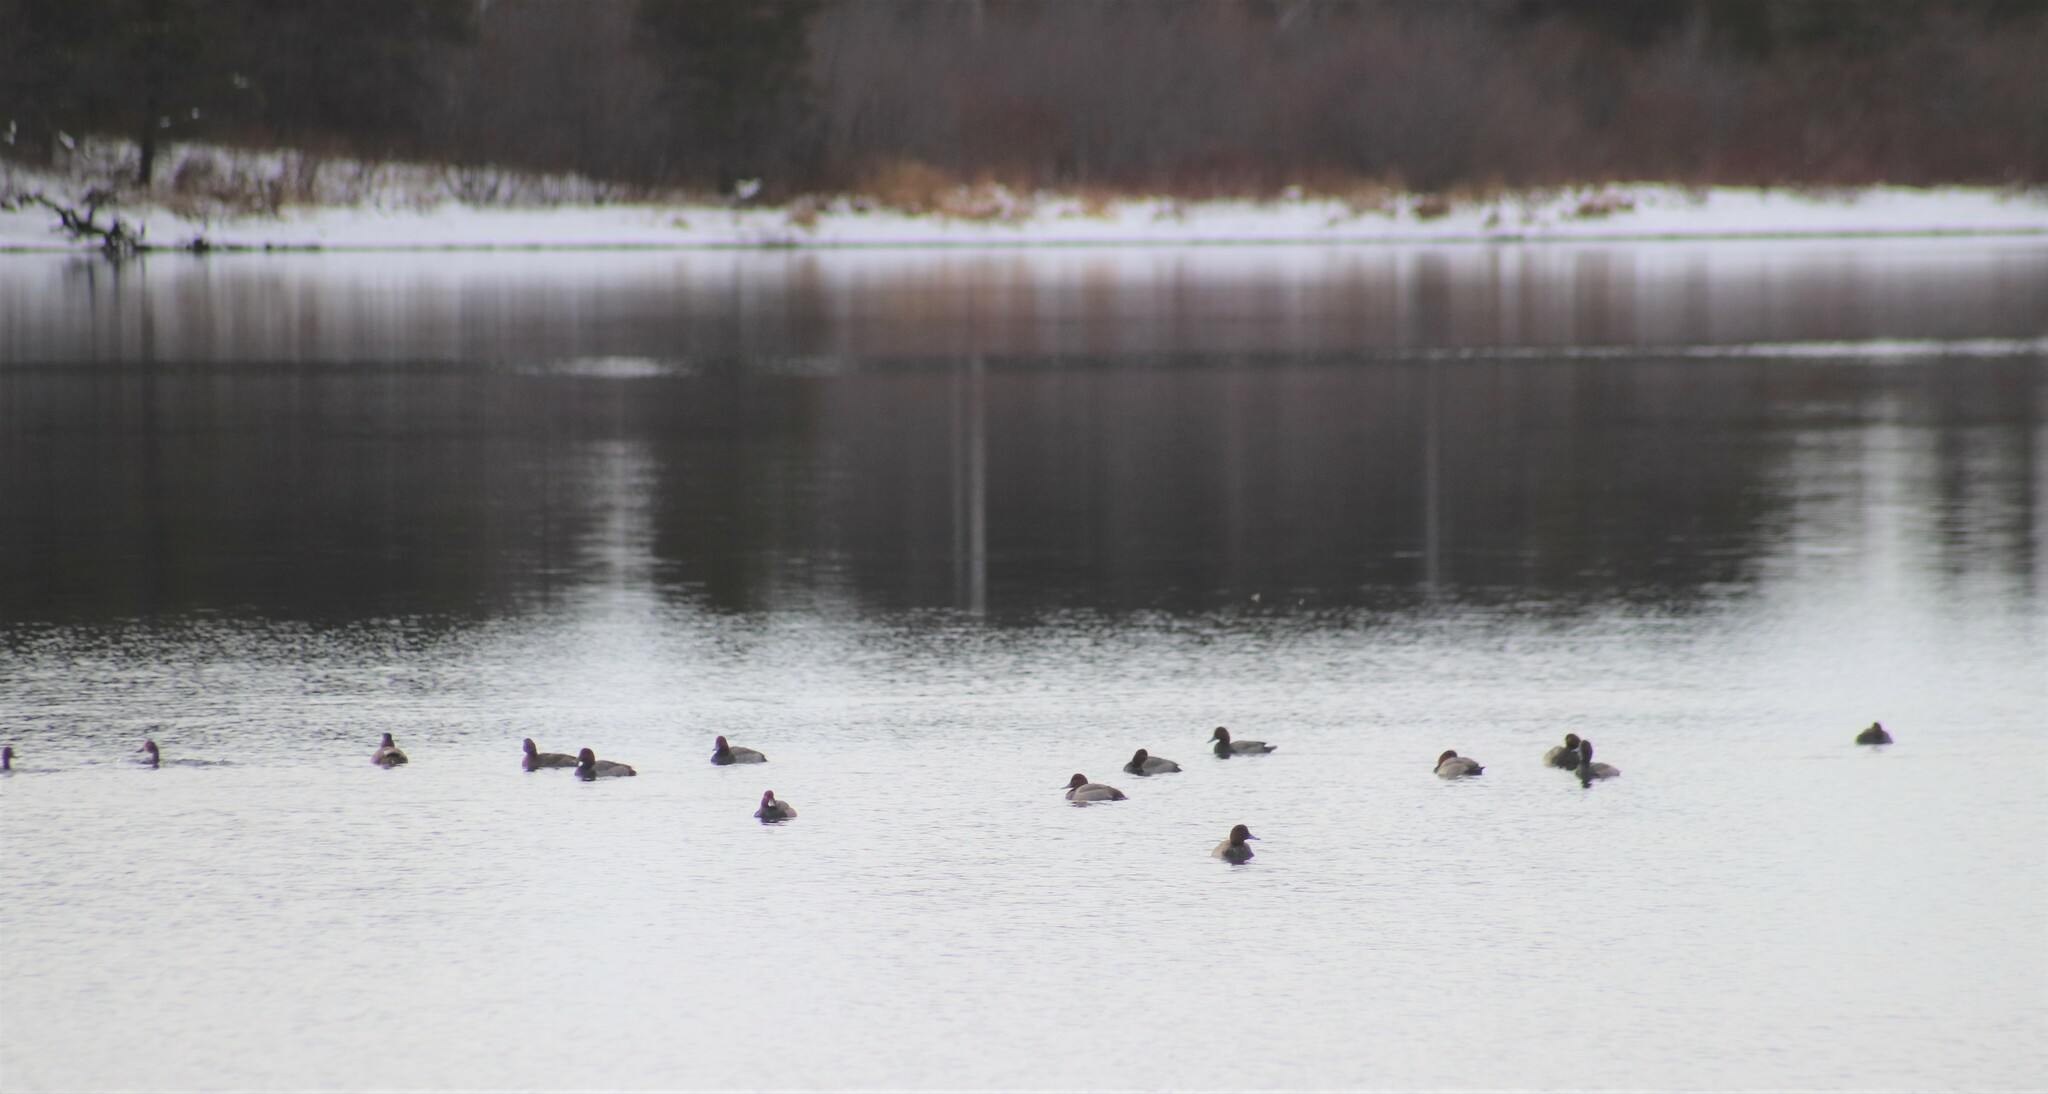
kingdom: Animalia
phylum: Chordata
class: Aves
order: Anseriformes
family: Anatidae
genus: Aythya
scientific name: Aythya americana
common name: Redhead
